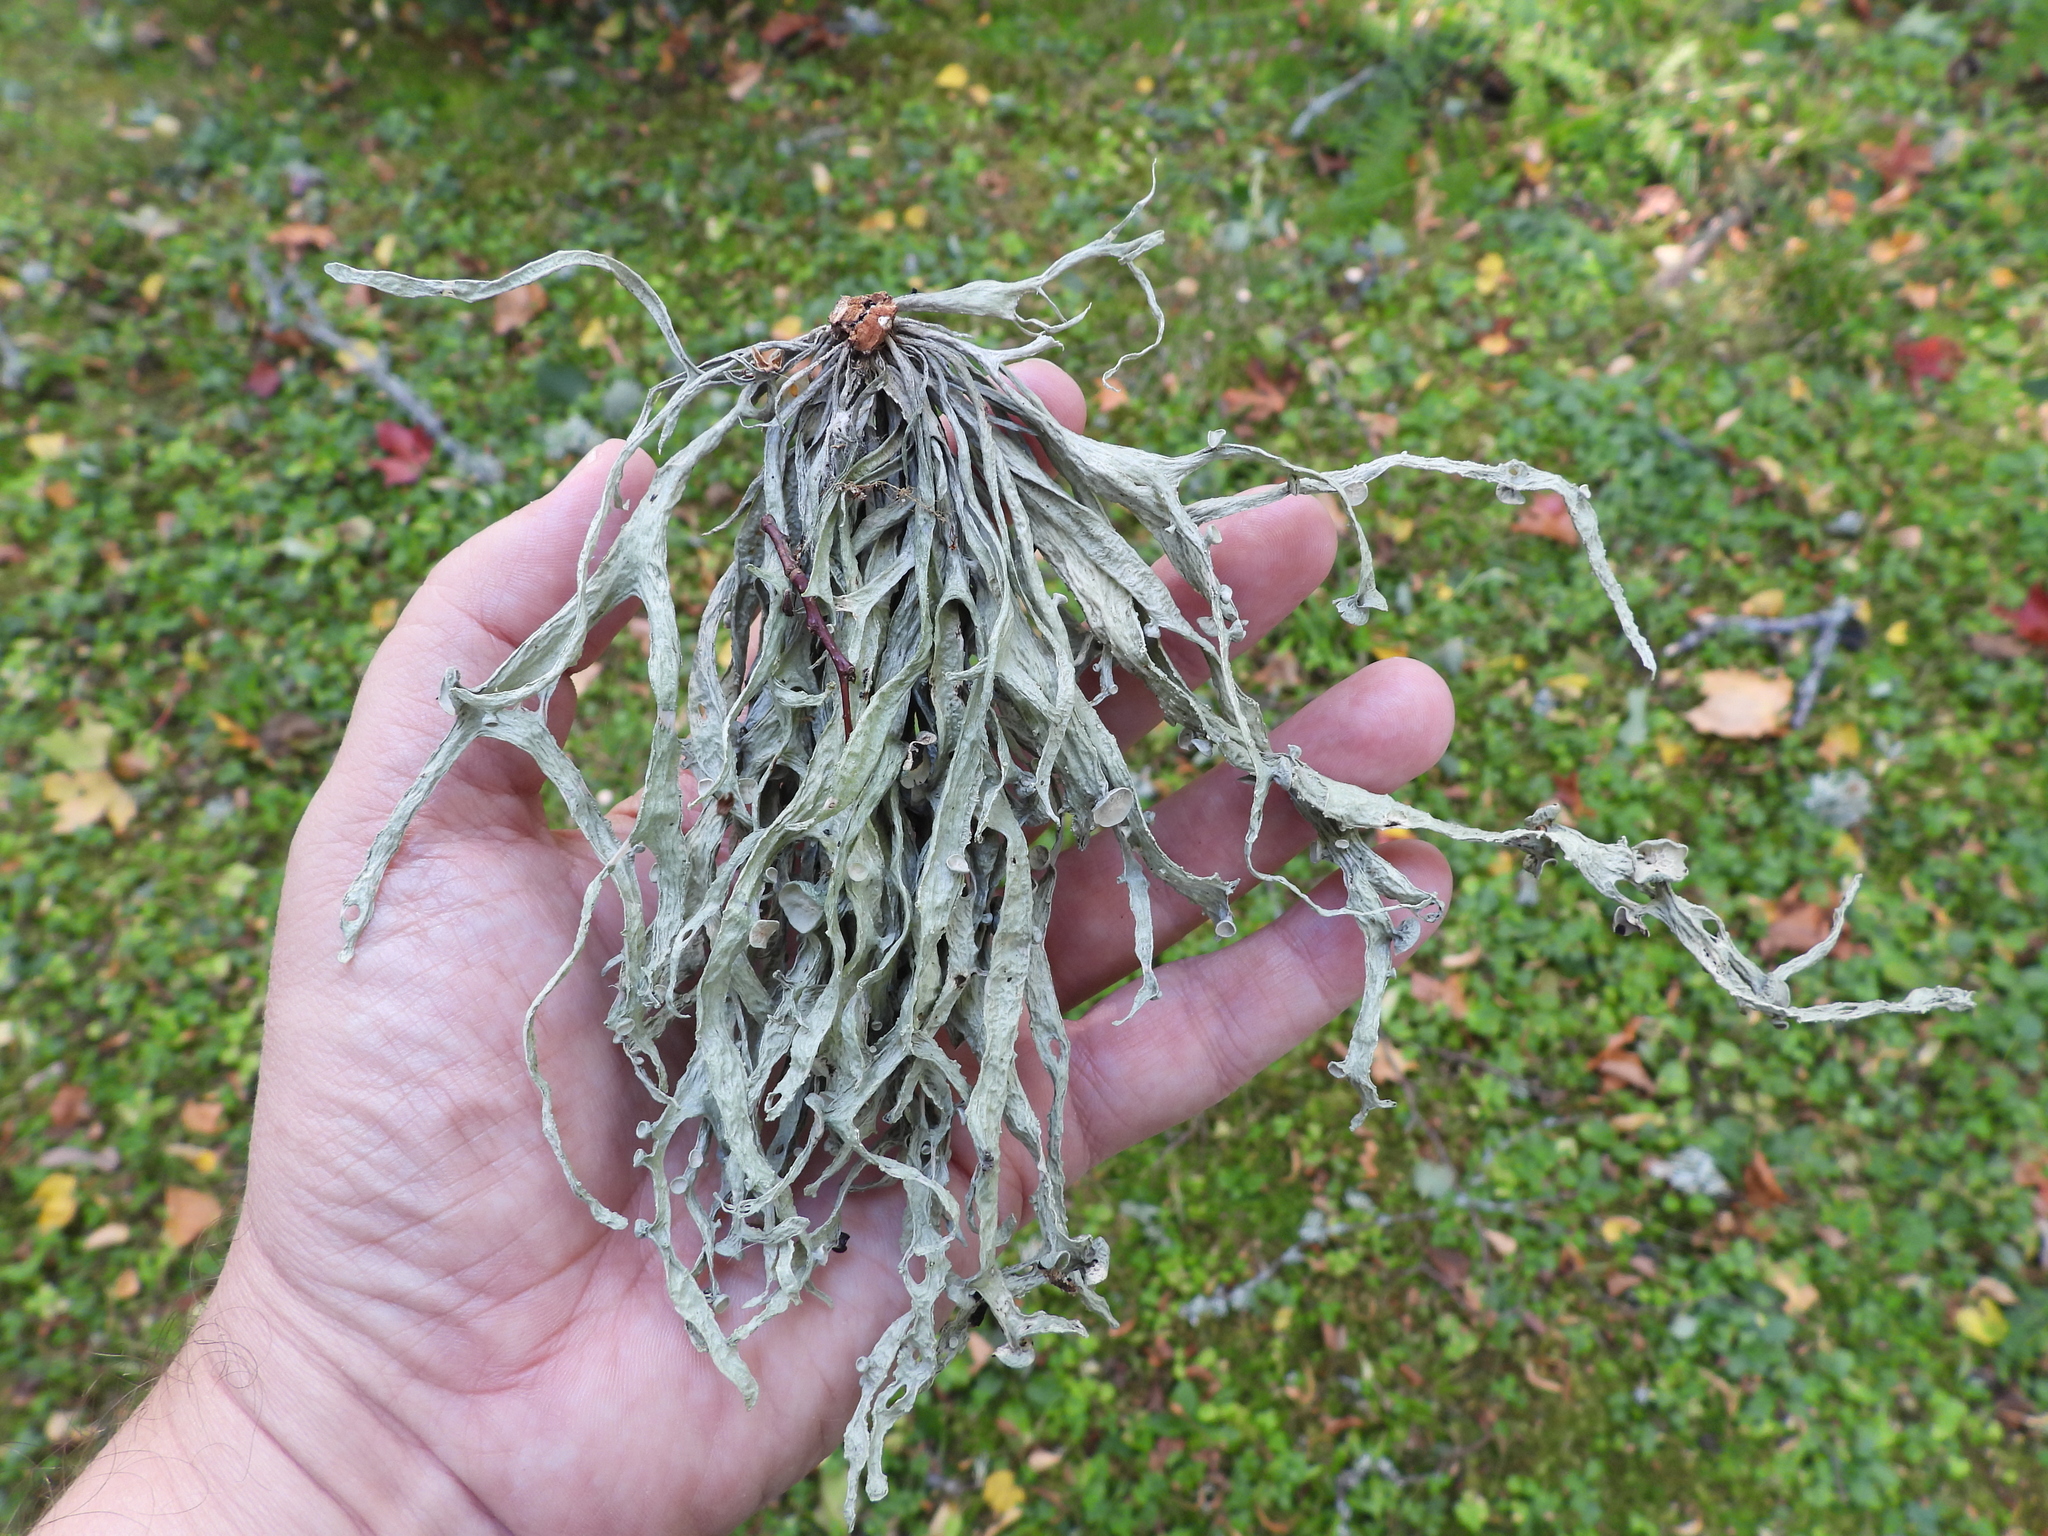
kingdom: Fungi
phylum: Ascomycota
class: Lecanoromycetes
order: Lecanorales
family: Ramalinaceae
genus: Ramalina
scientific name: Ramalina fraxinea
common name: Cartilage lichen
